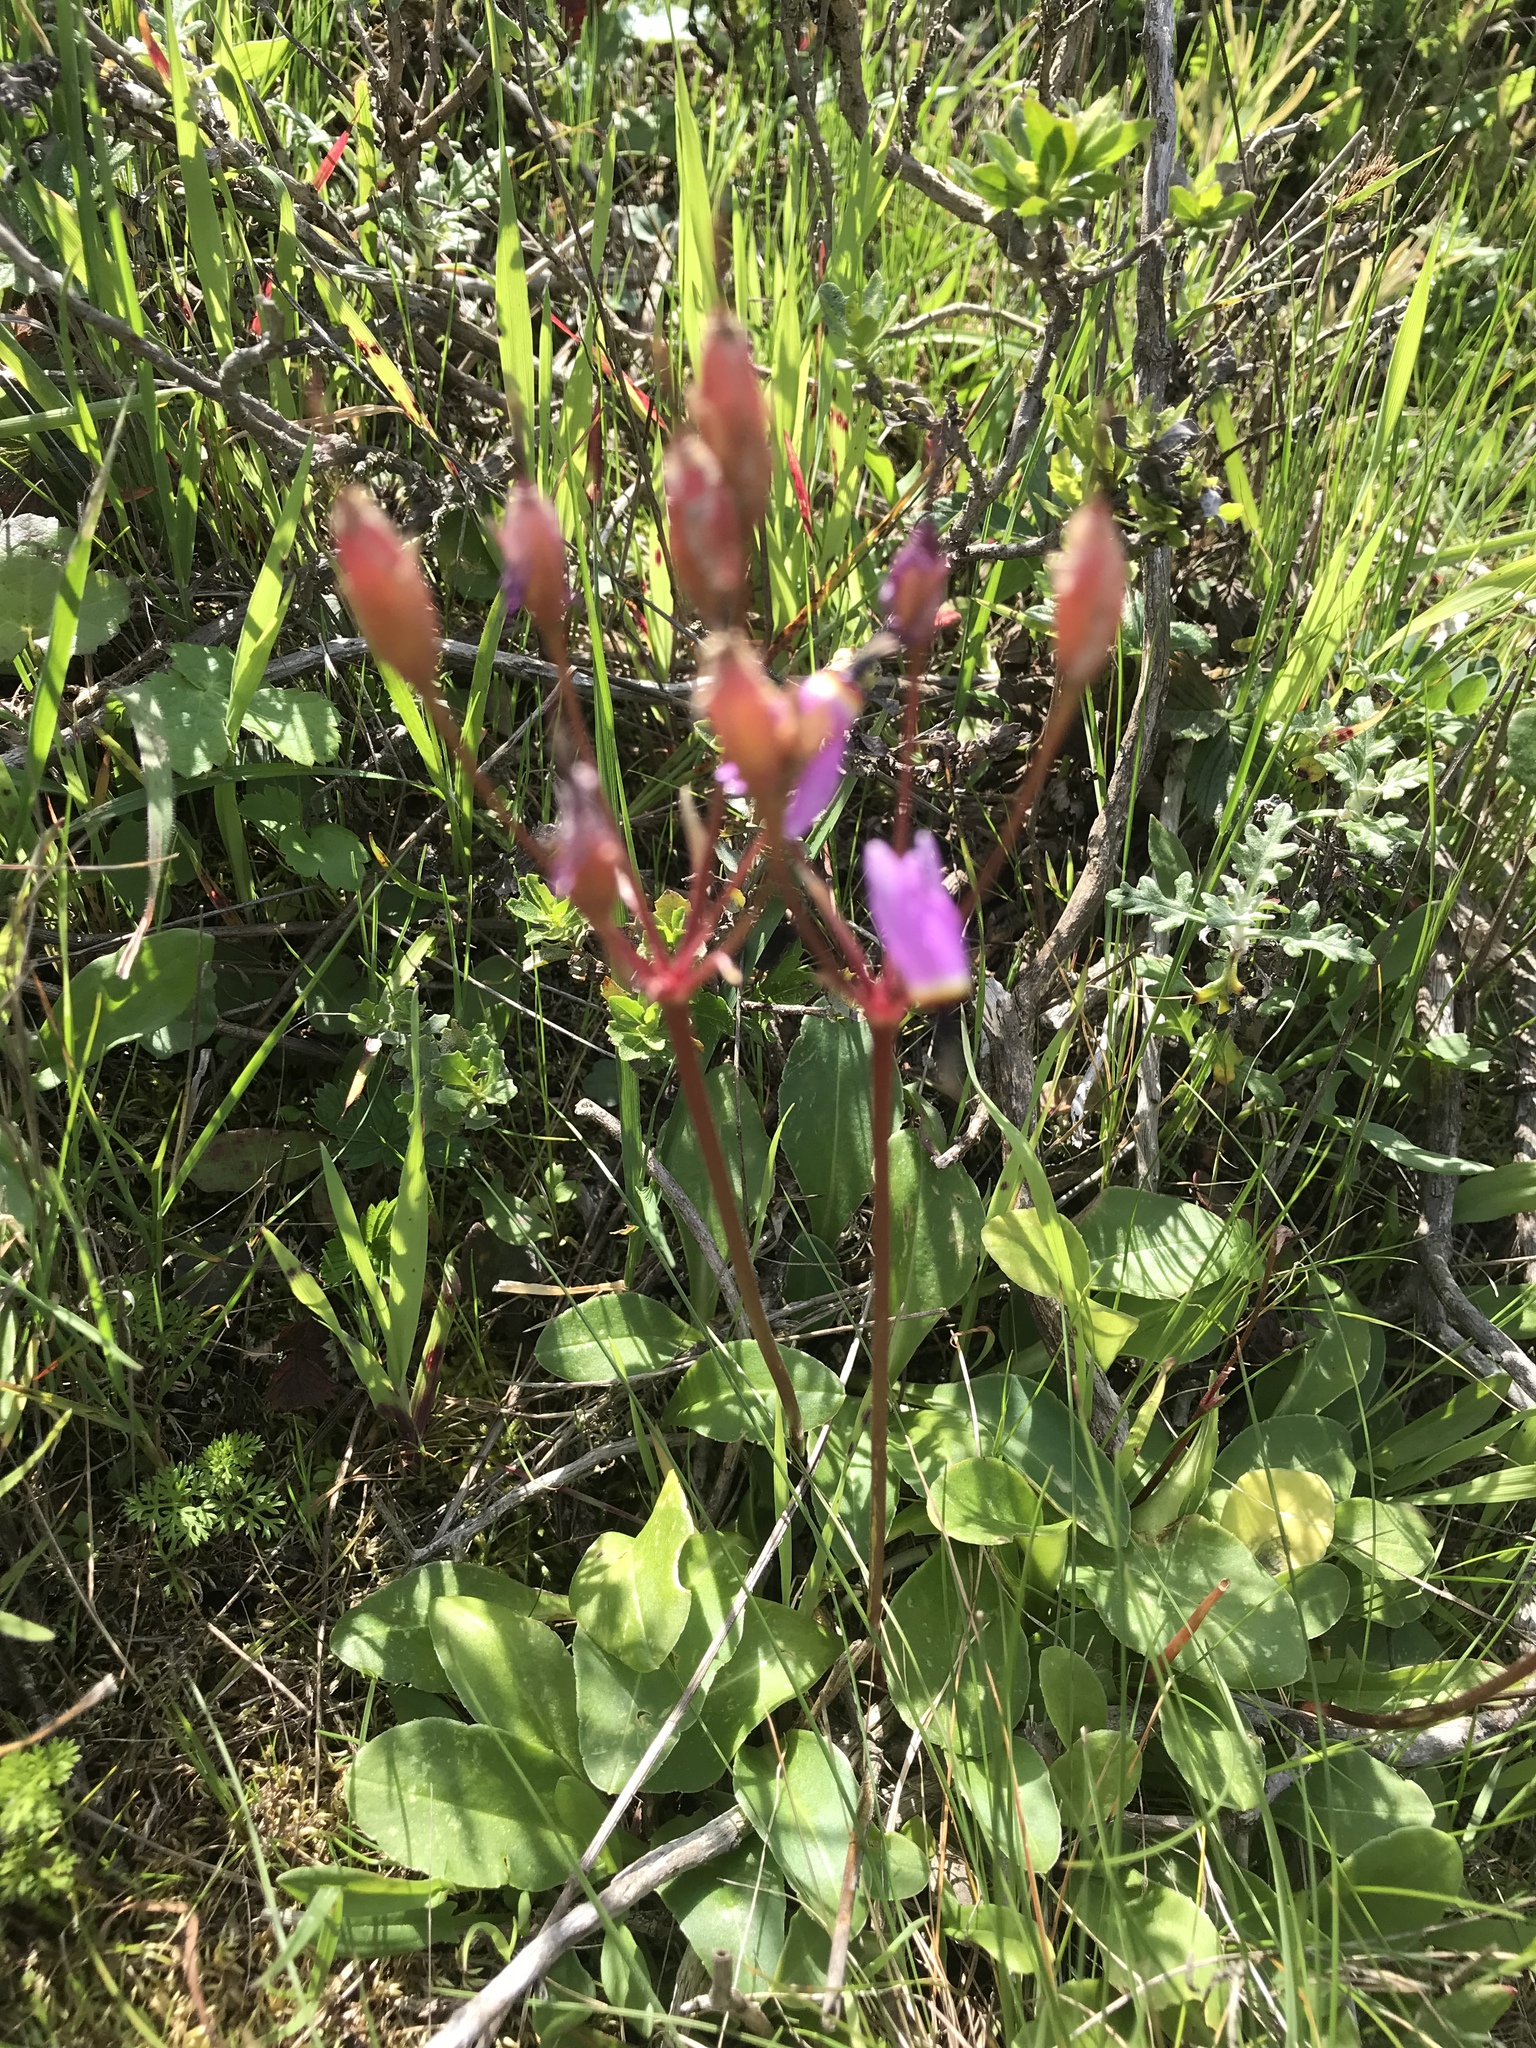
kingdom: Plantae
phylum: Tracheophyta
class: Magnoliopsida
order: Ericales
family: Primulaceae
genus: Dodecatheon
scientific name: Dodecatheon hendersonii
